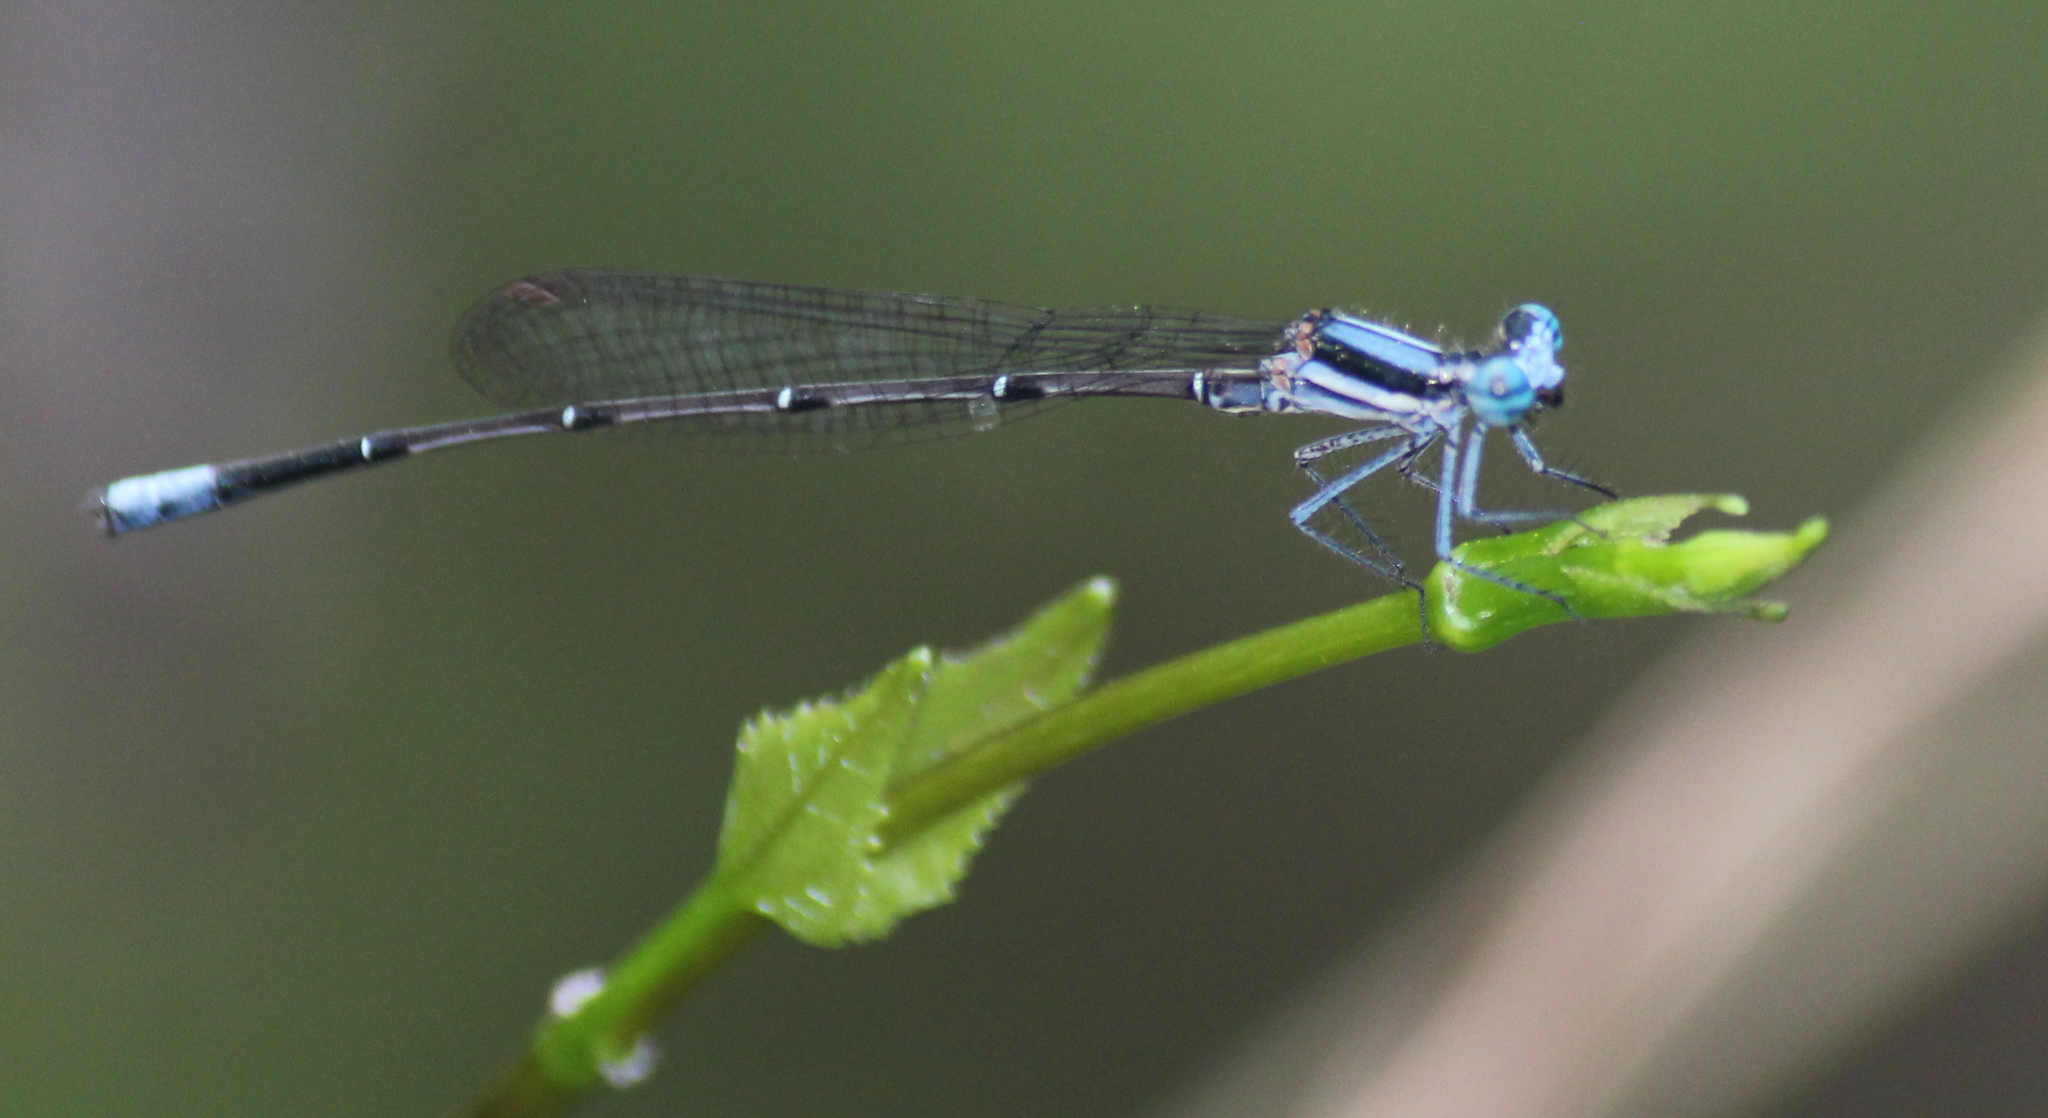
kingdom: Animalia
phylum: Arthropoda
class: Insecta
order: Odonata
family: Platycnemididae
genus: Elattoneura
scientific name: Elattoneura glauca
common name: Common threadtail
